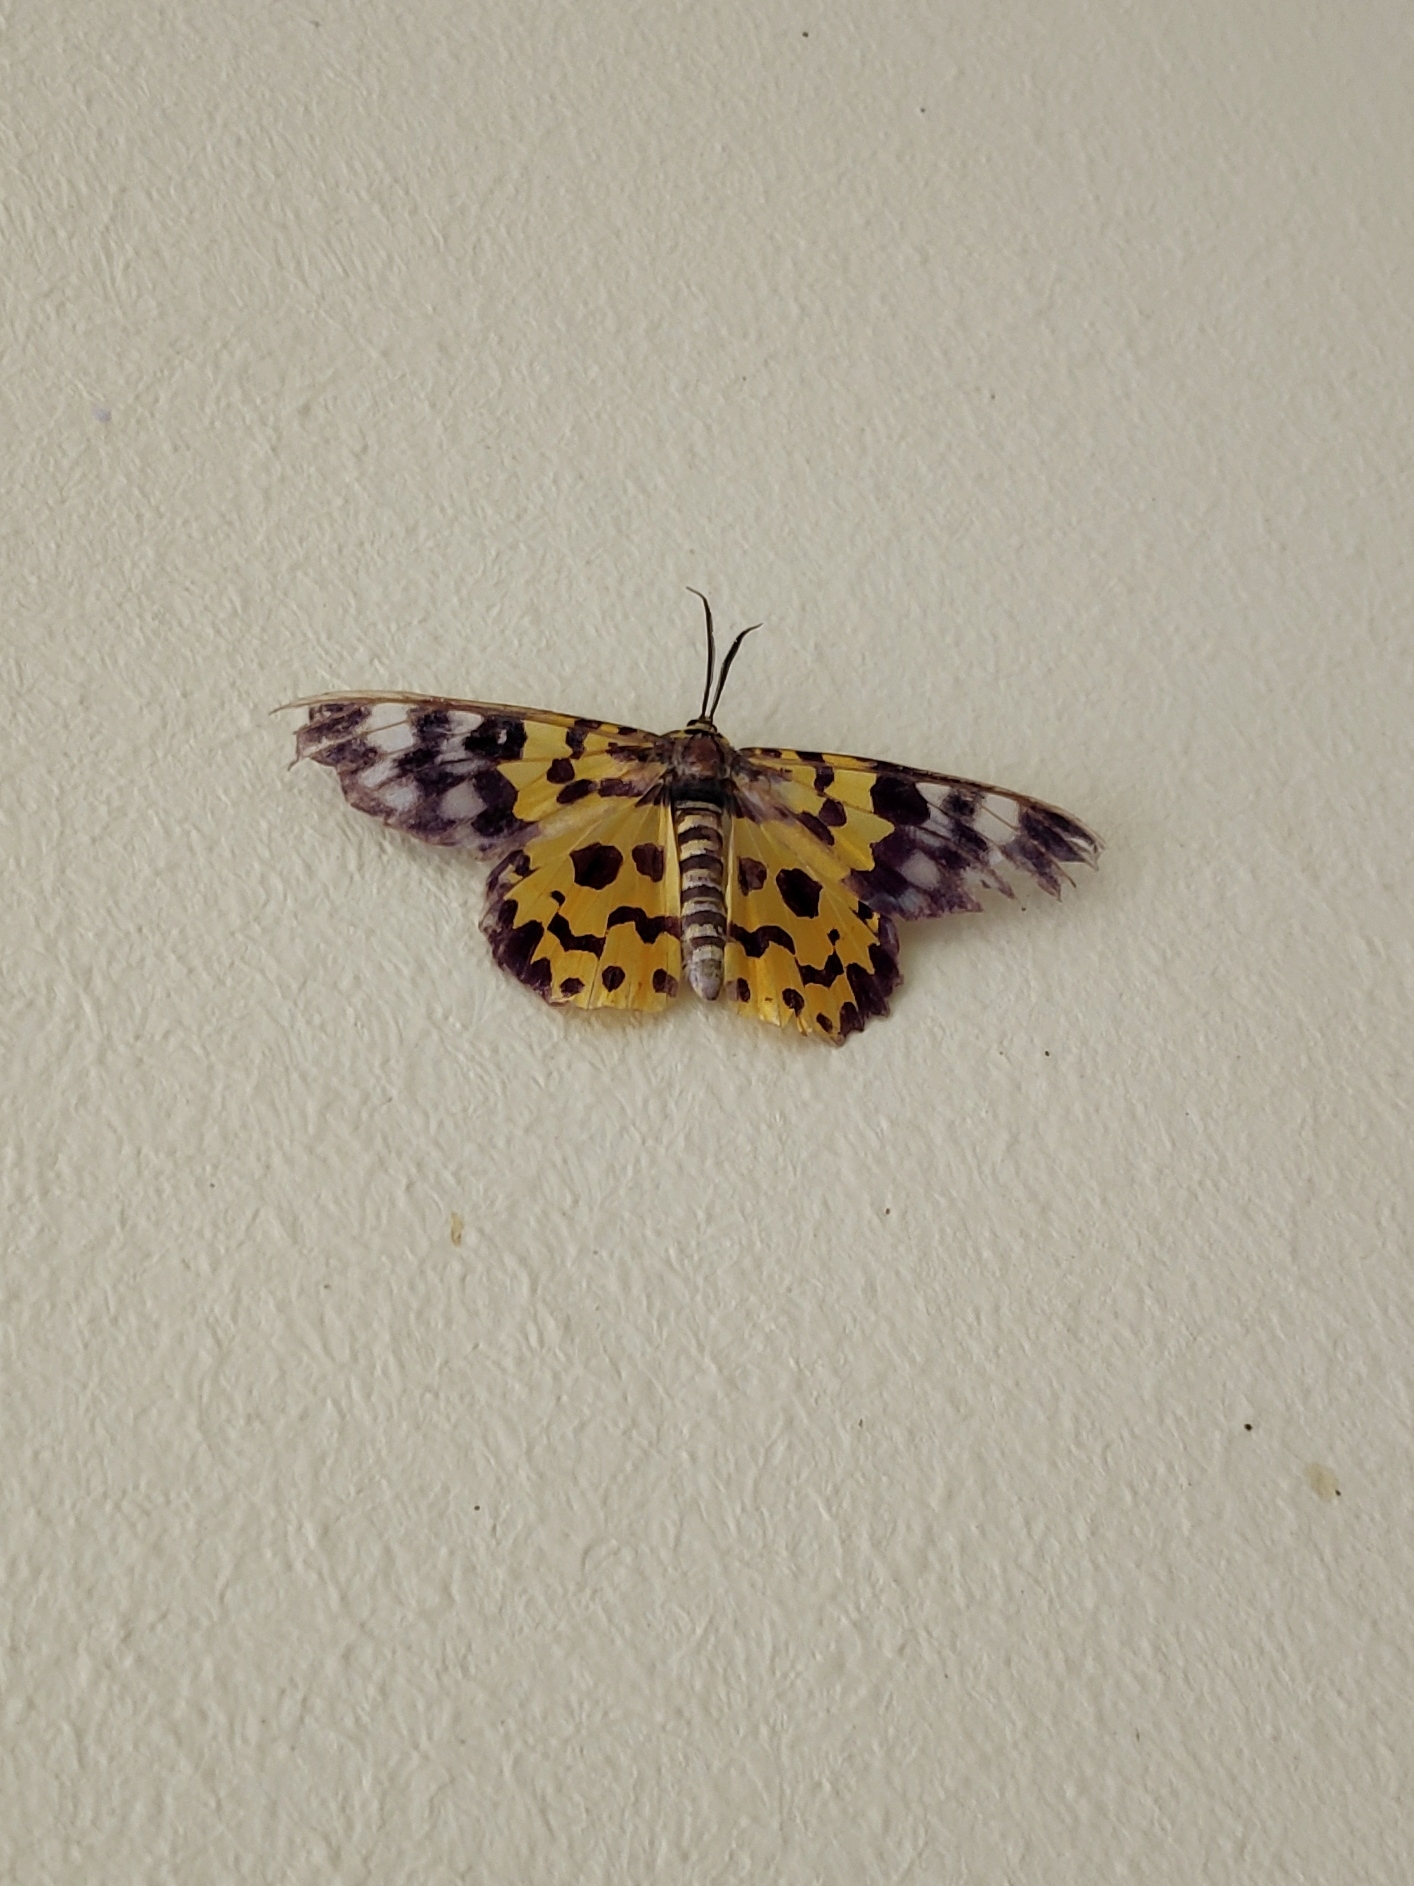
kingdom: Animalia
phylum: Arthropoda
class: Insecta
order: Lepidoptera
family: Geometridae
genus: Dysphania
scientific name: Dysphania militaris
